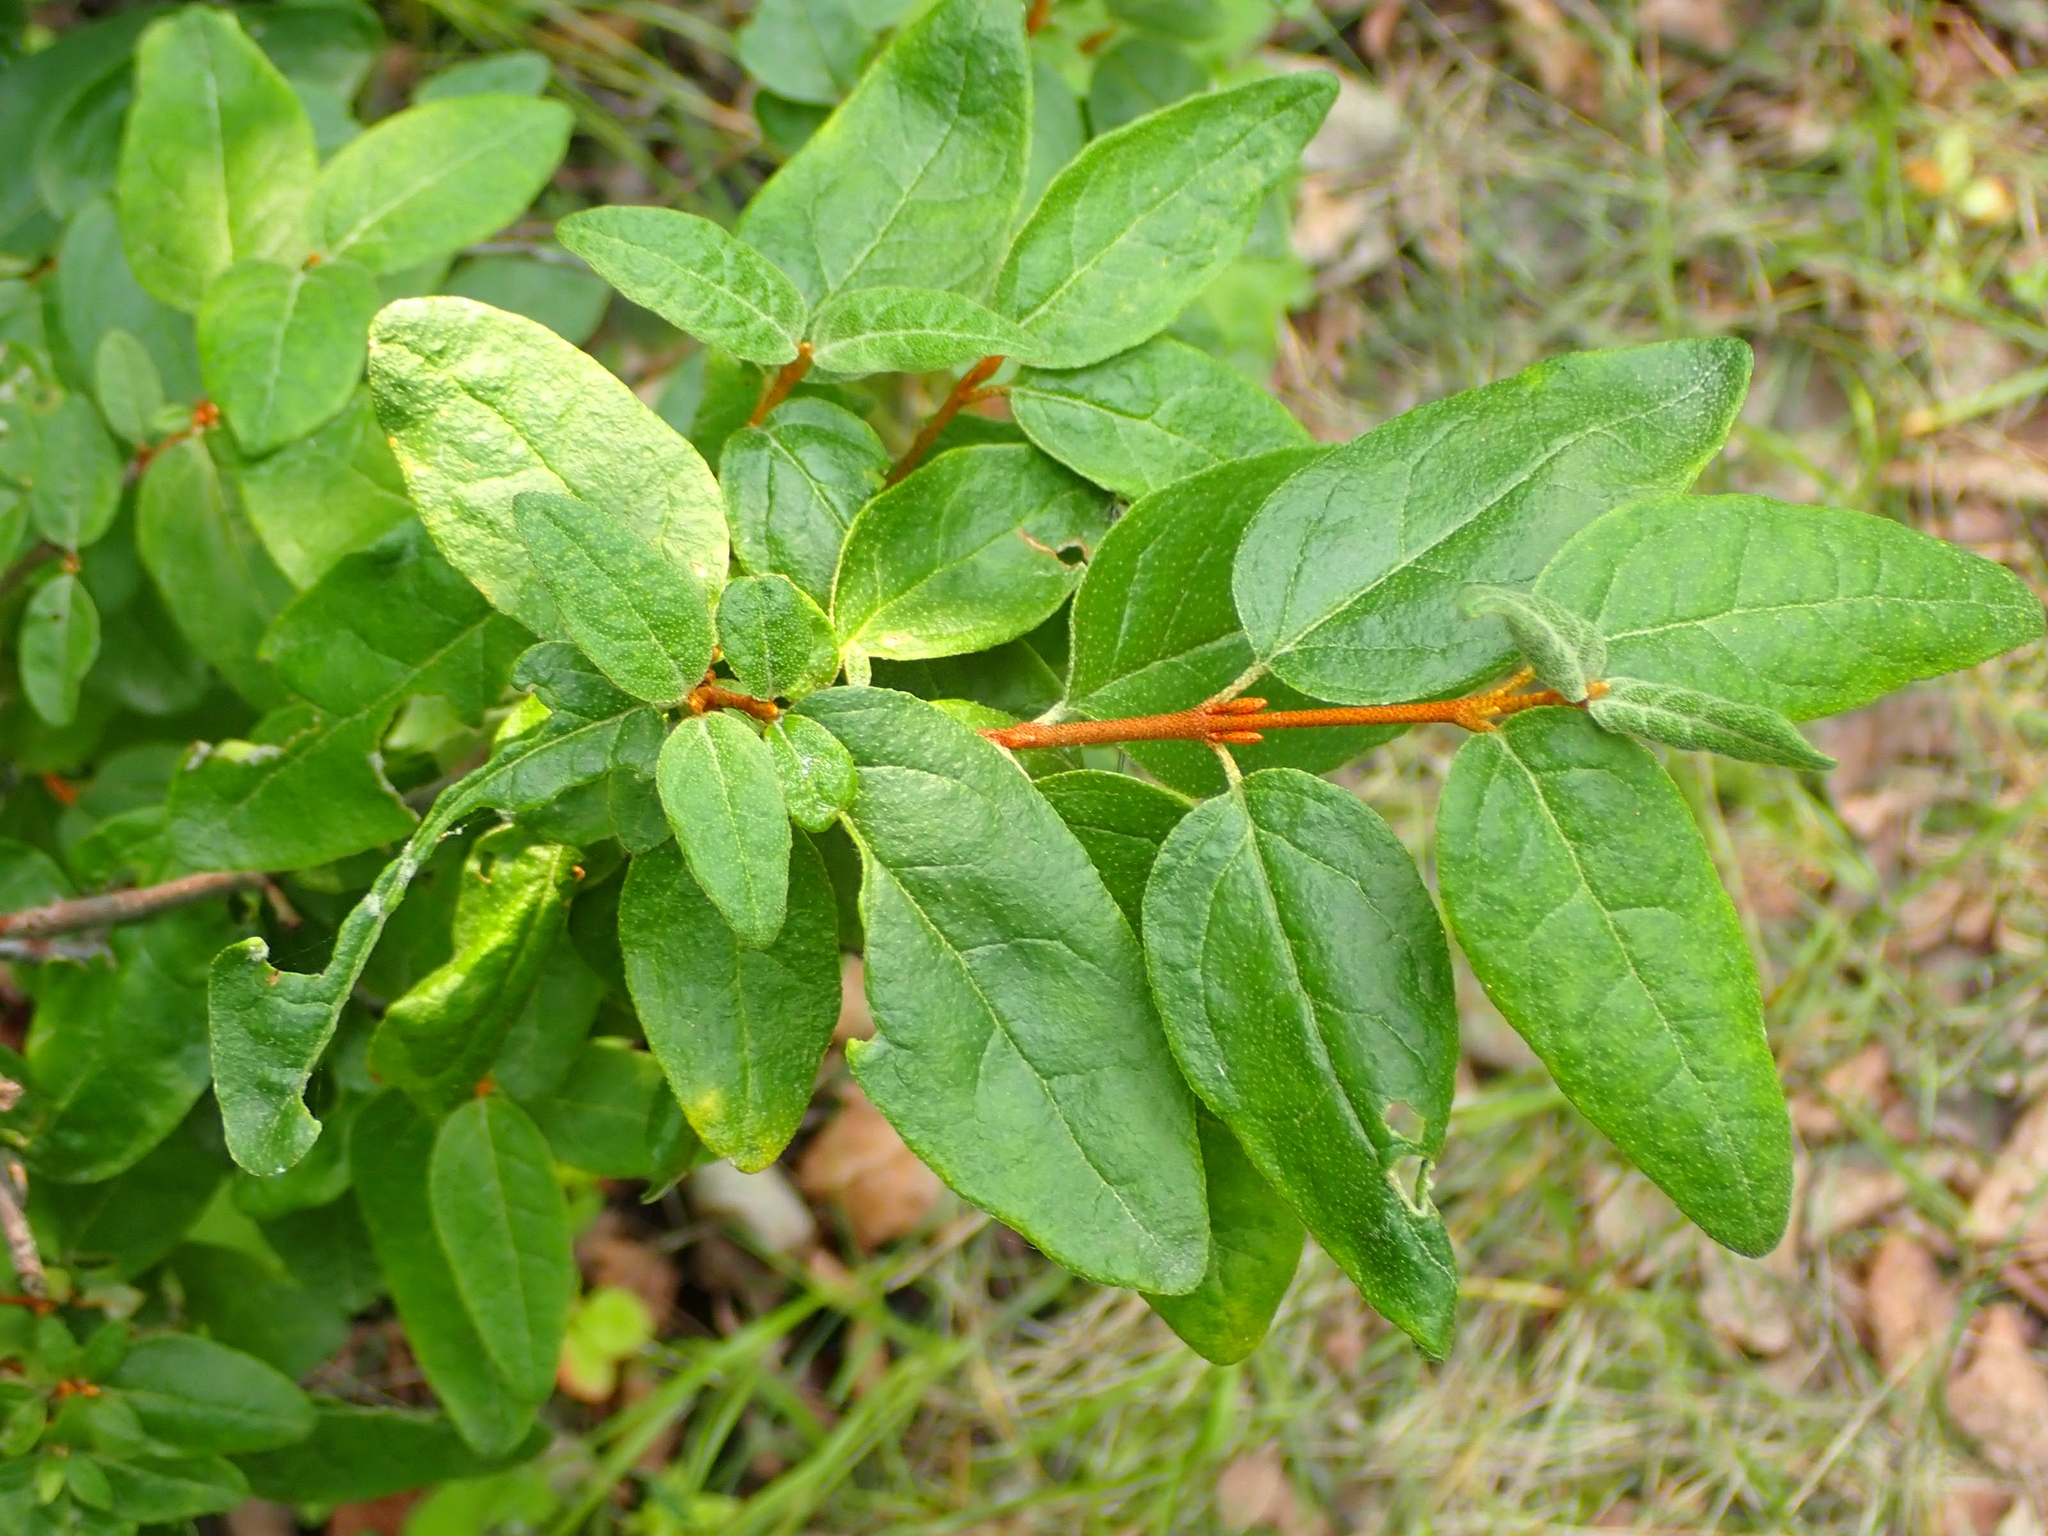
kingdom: Plantae
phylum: Tracheophyta
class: Magnoliopsida
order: Rosales
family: Elaeagnaceae
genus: Shepherdia
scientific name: Shepherdia canadensis
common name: Soapberry
